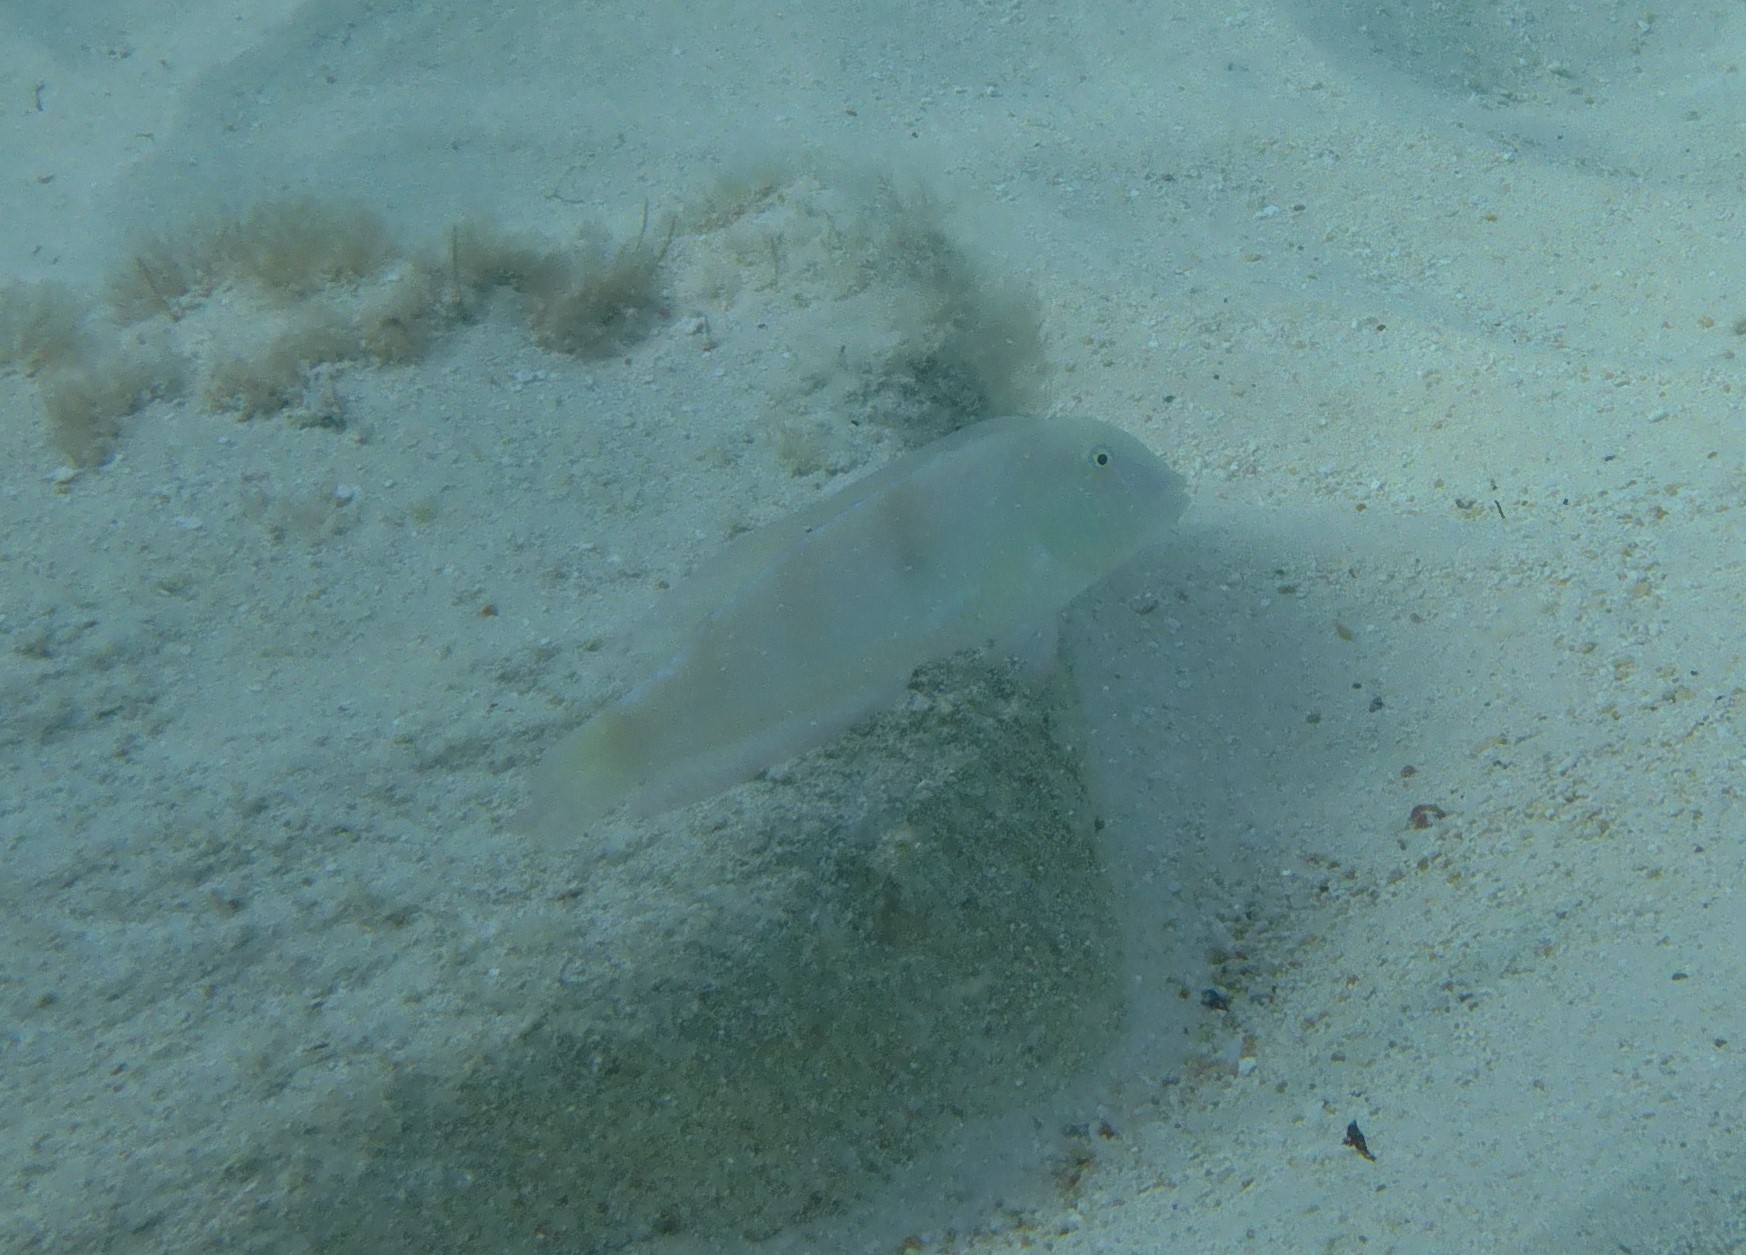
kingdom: Animalia
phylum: Chordata
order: Perciformes
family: Labridae
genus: Xyrichtys
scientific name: Xyrichtys novacula
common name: Pearly razorfish
